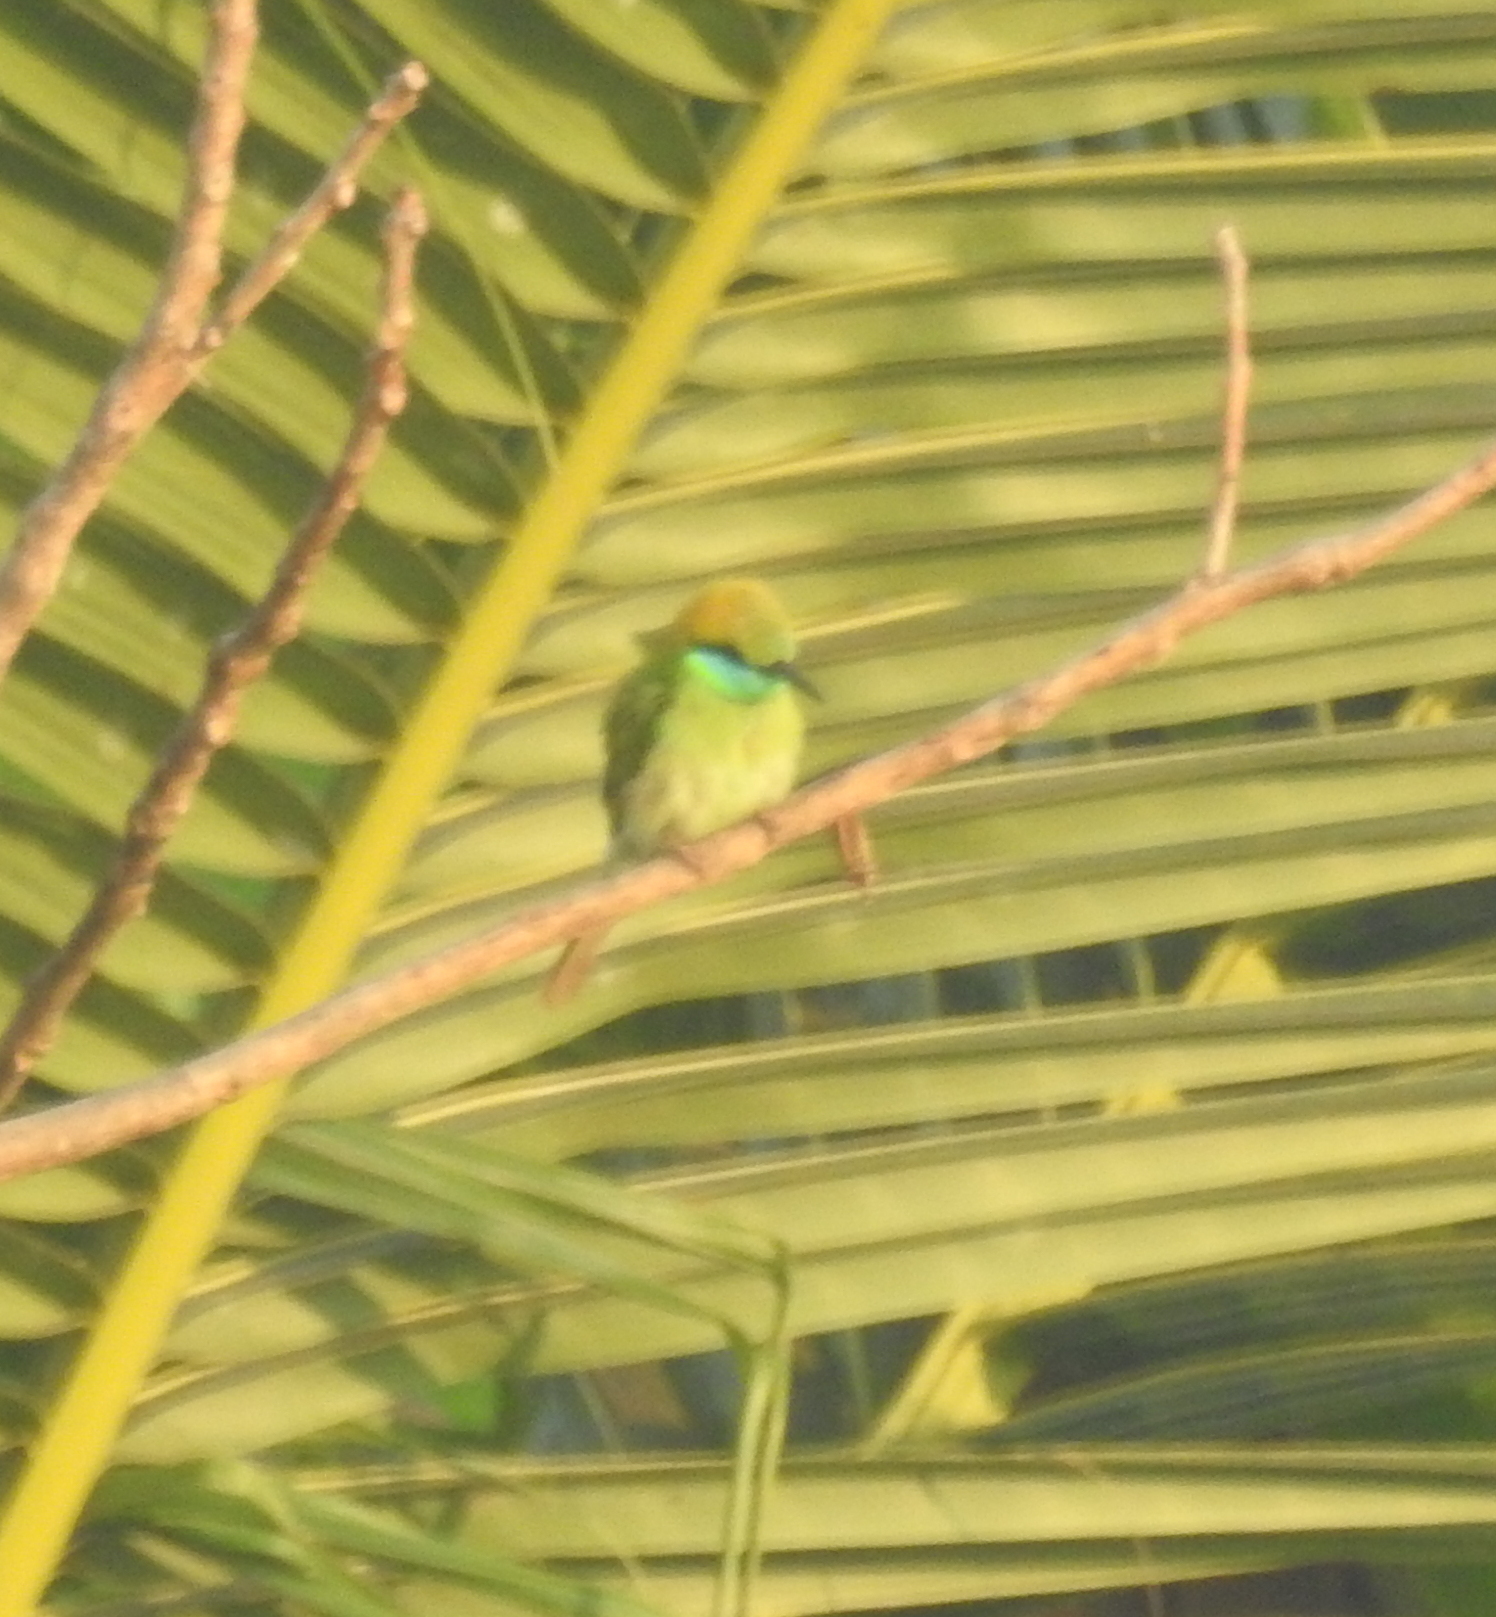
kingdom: Animalia
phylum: Chordata
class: Aves
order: Coraciiformes
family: Meropidae
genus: Merops
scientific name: Merops orientalis
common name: Green bee-eater
